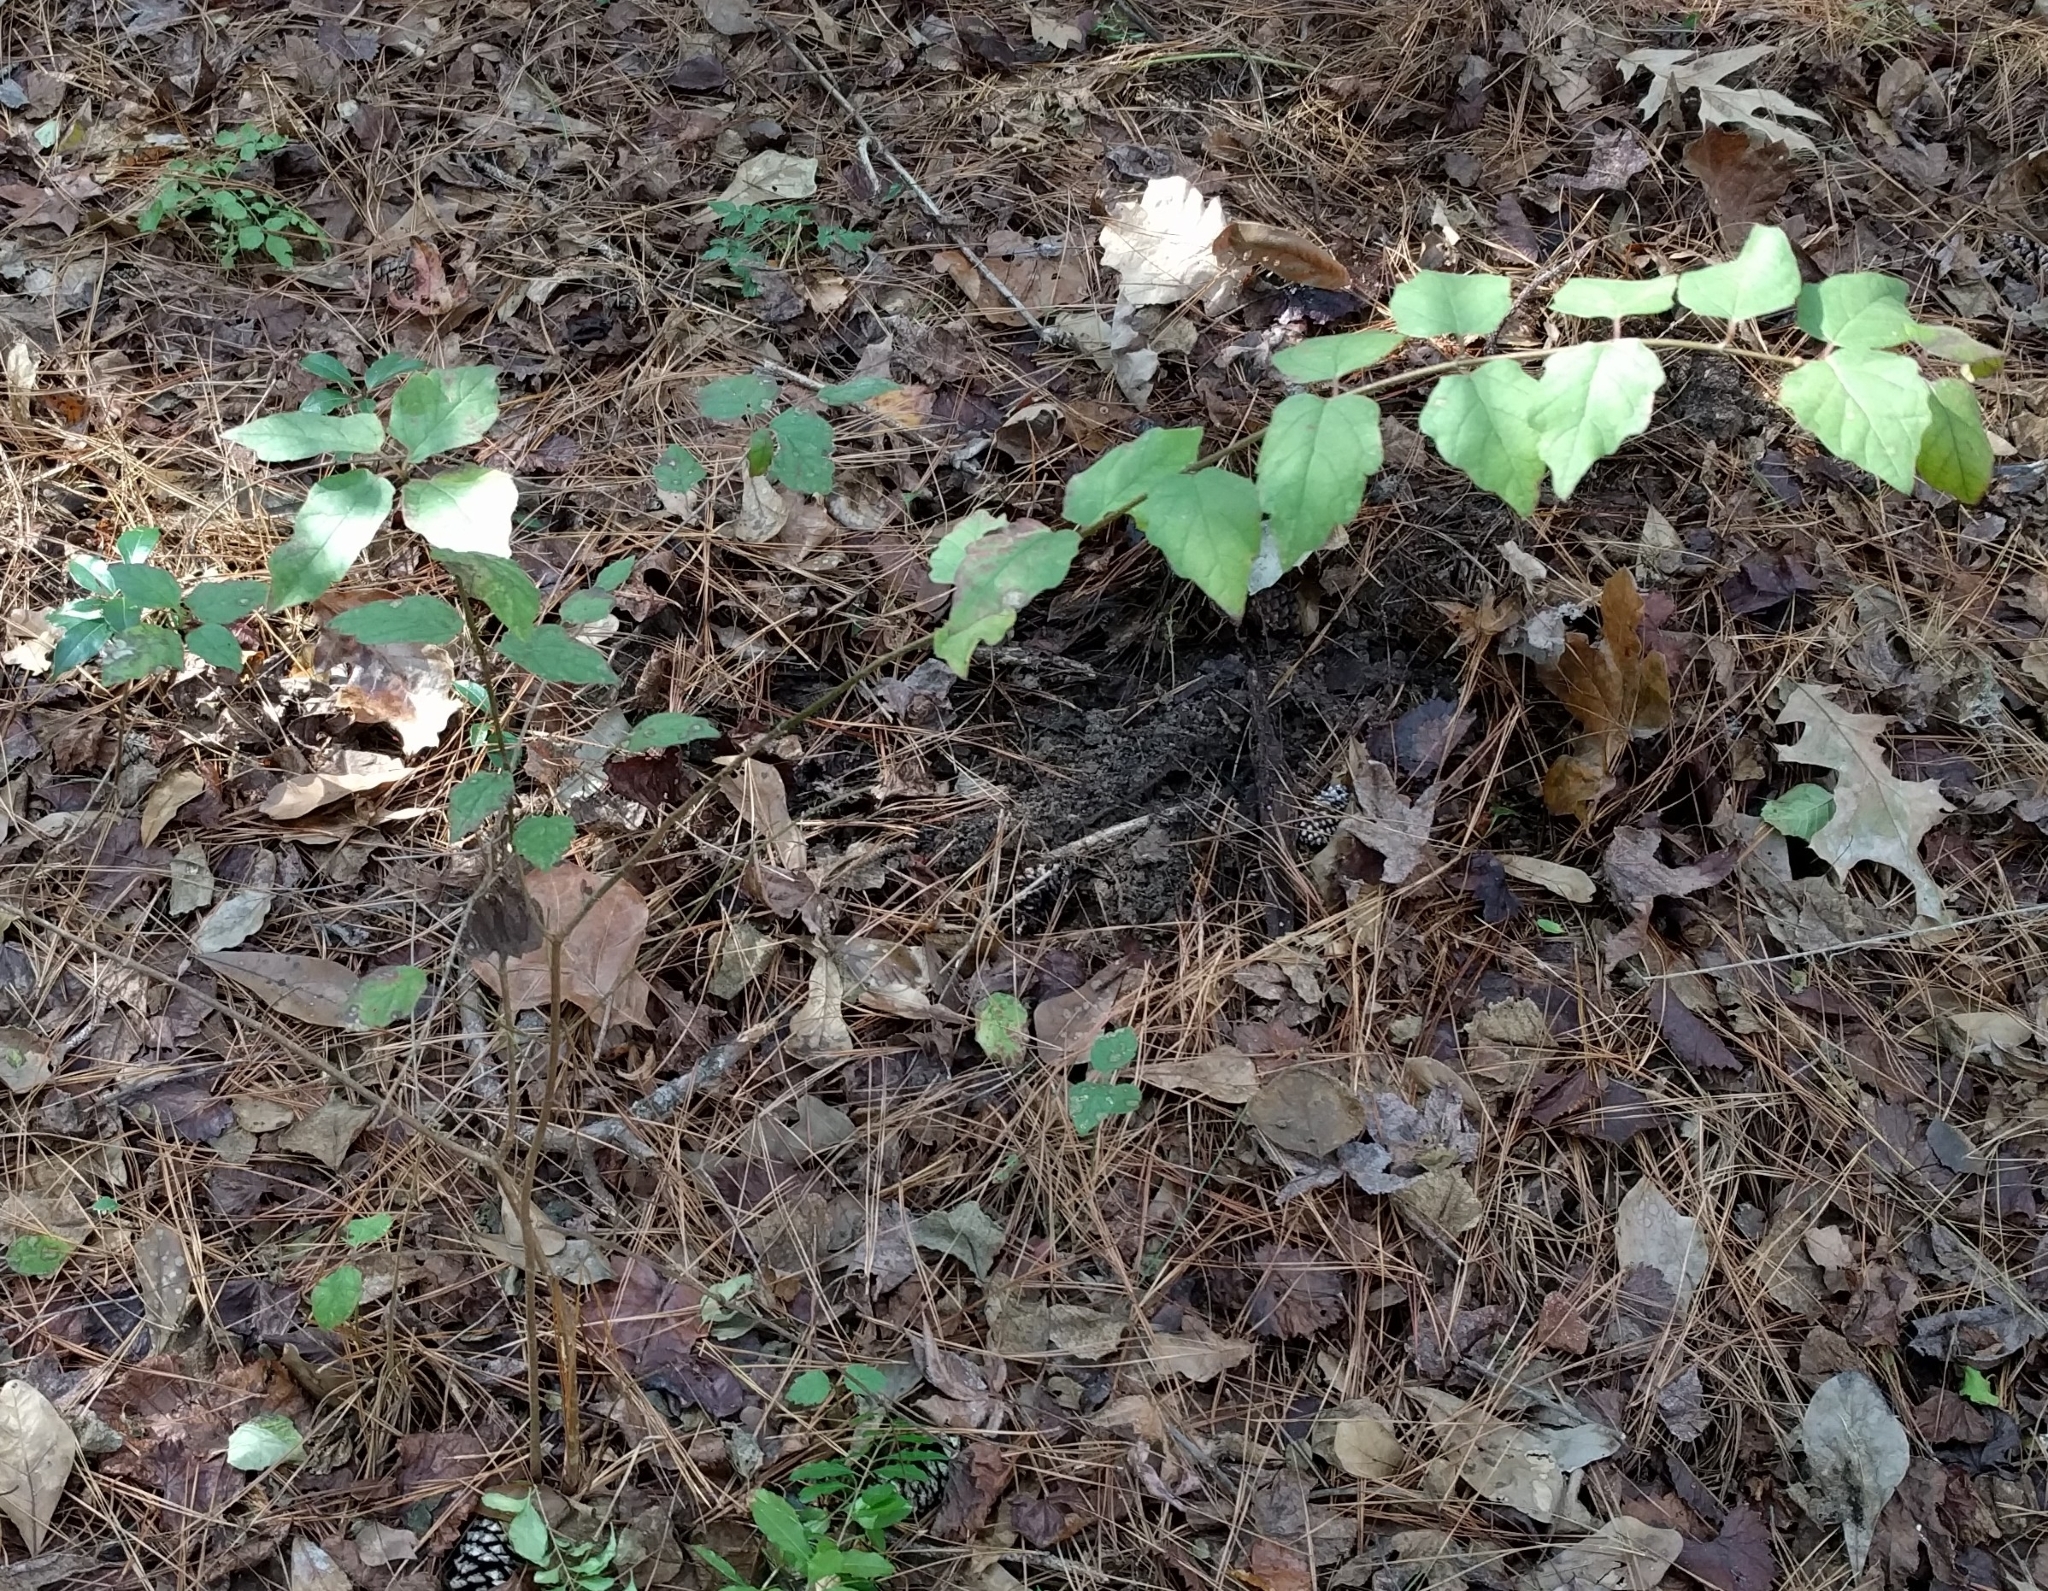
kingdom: Plantae
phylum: Tracheophyta
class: Magnoliopsida
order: Dipsacales
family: Viburnaceae
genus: Viburnum
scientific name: Viburnum scabrellum
